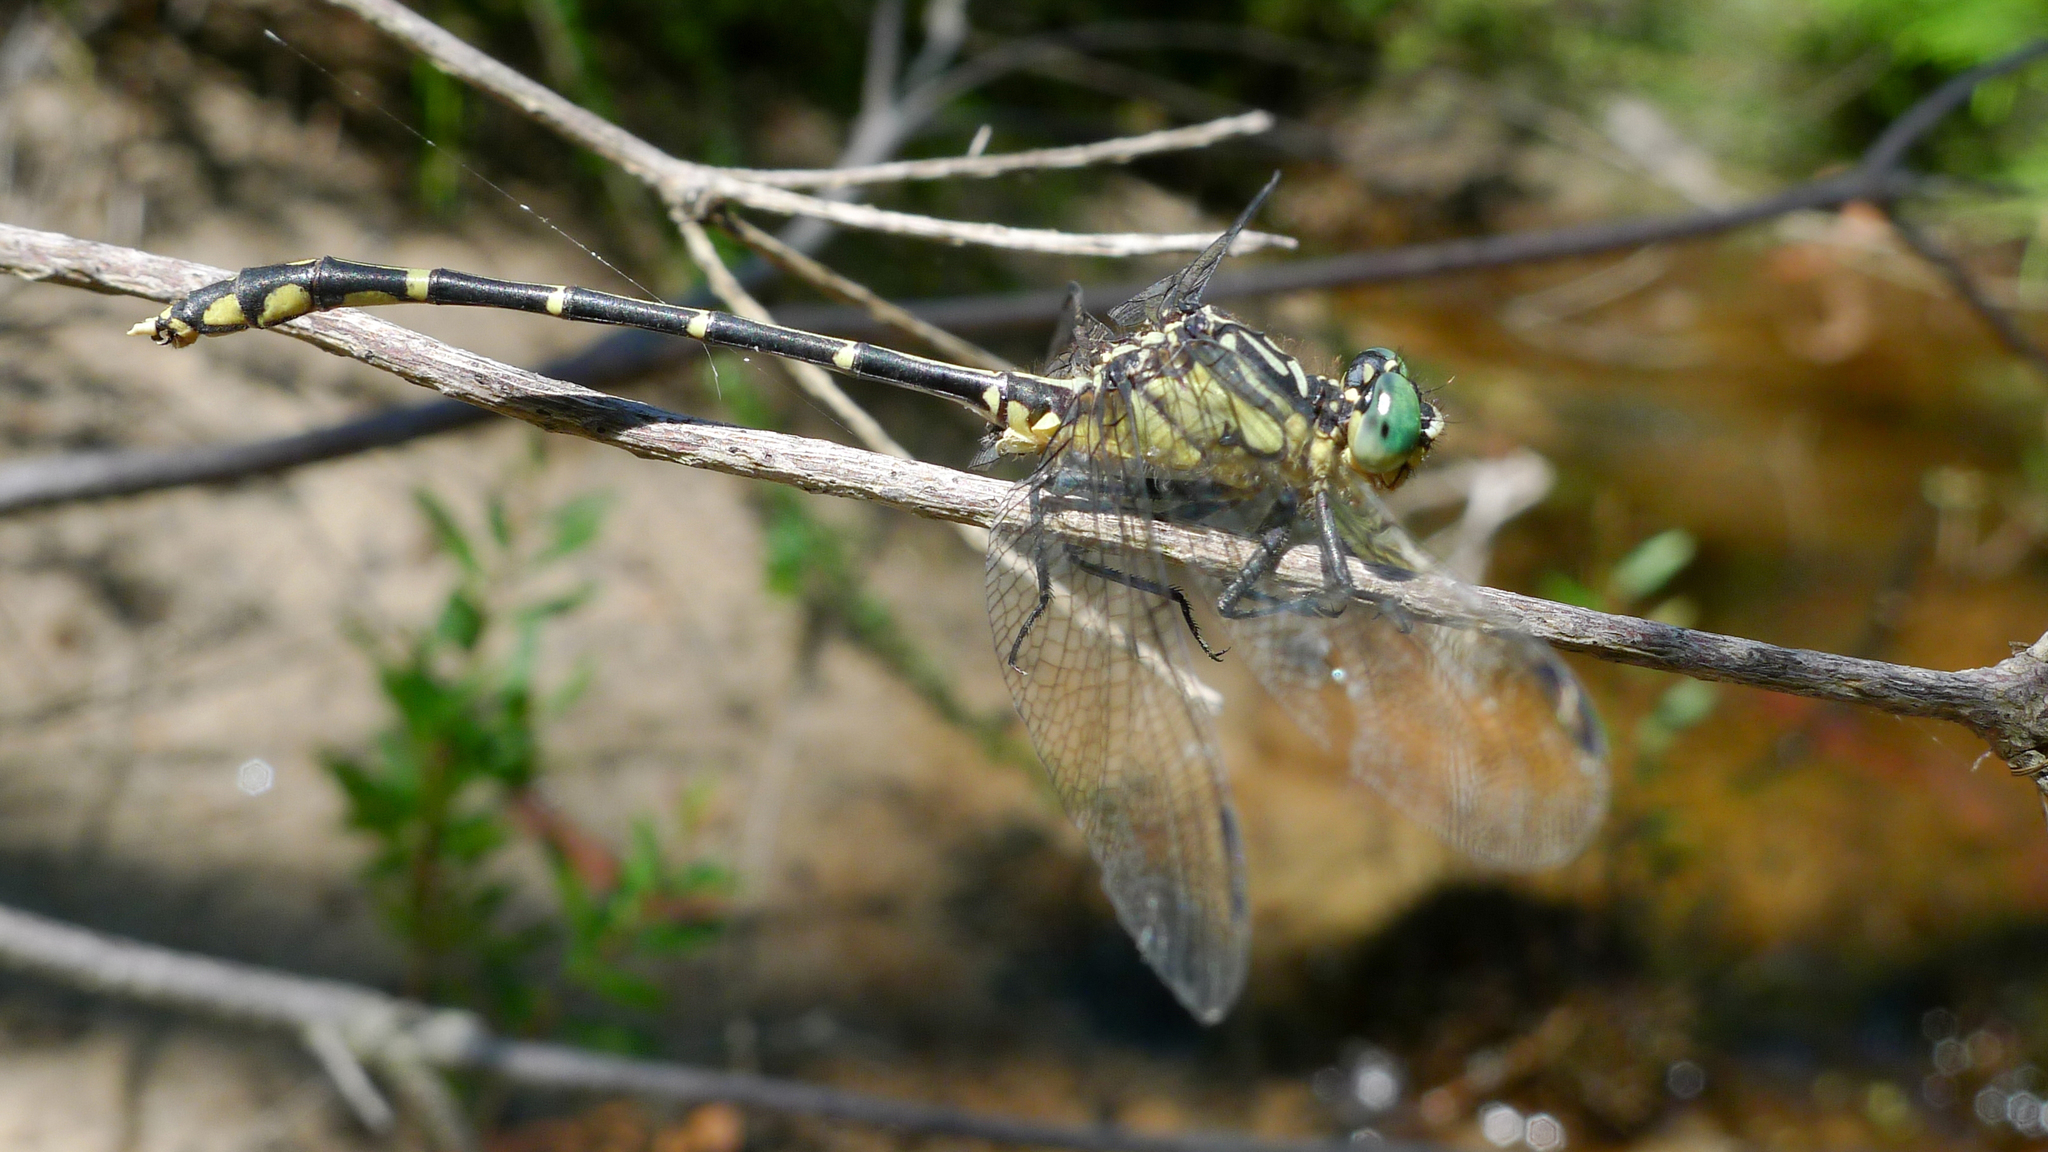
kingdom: Animalia
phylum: Arthropoda
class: Insecta
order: Odonata
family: Gomphidae
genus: Austrogomphus
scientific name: Austrogomphus ochraceus
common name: Jade hunter
